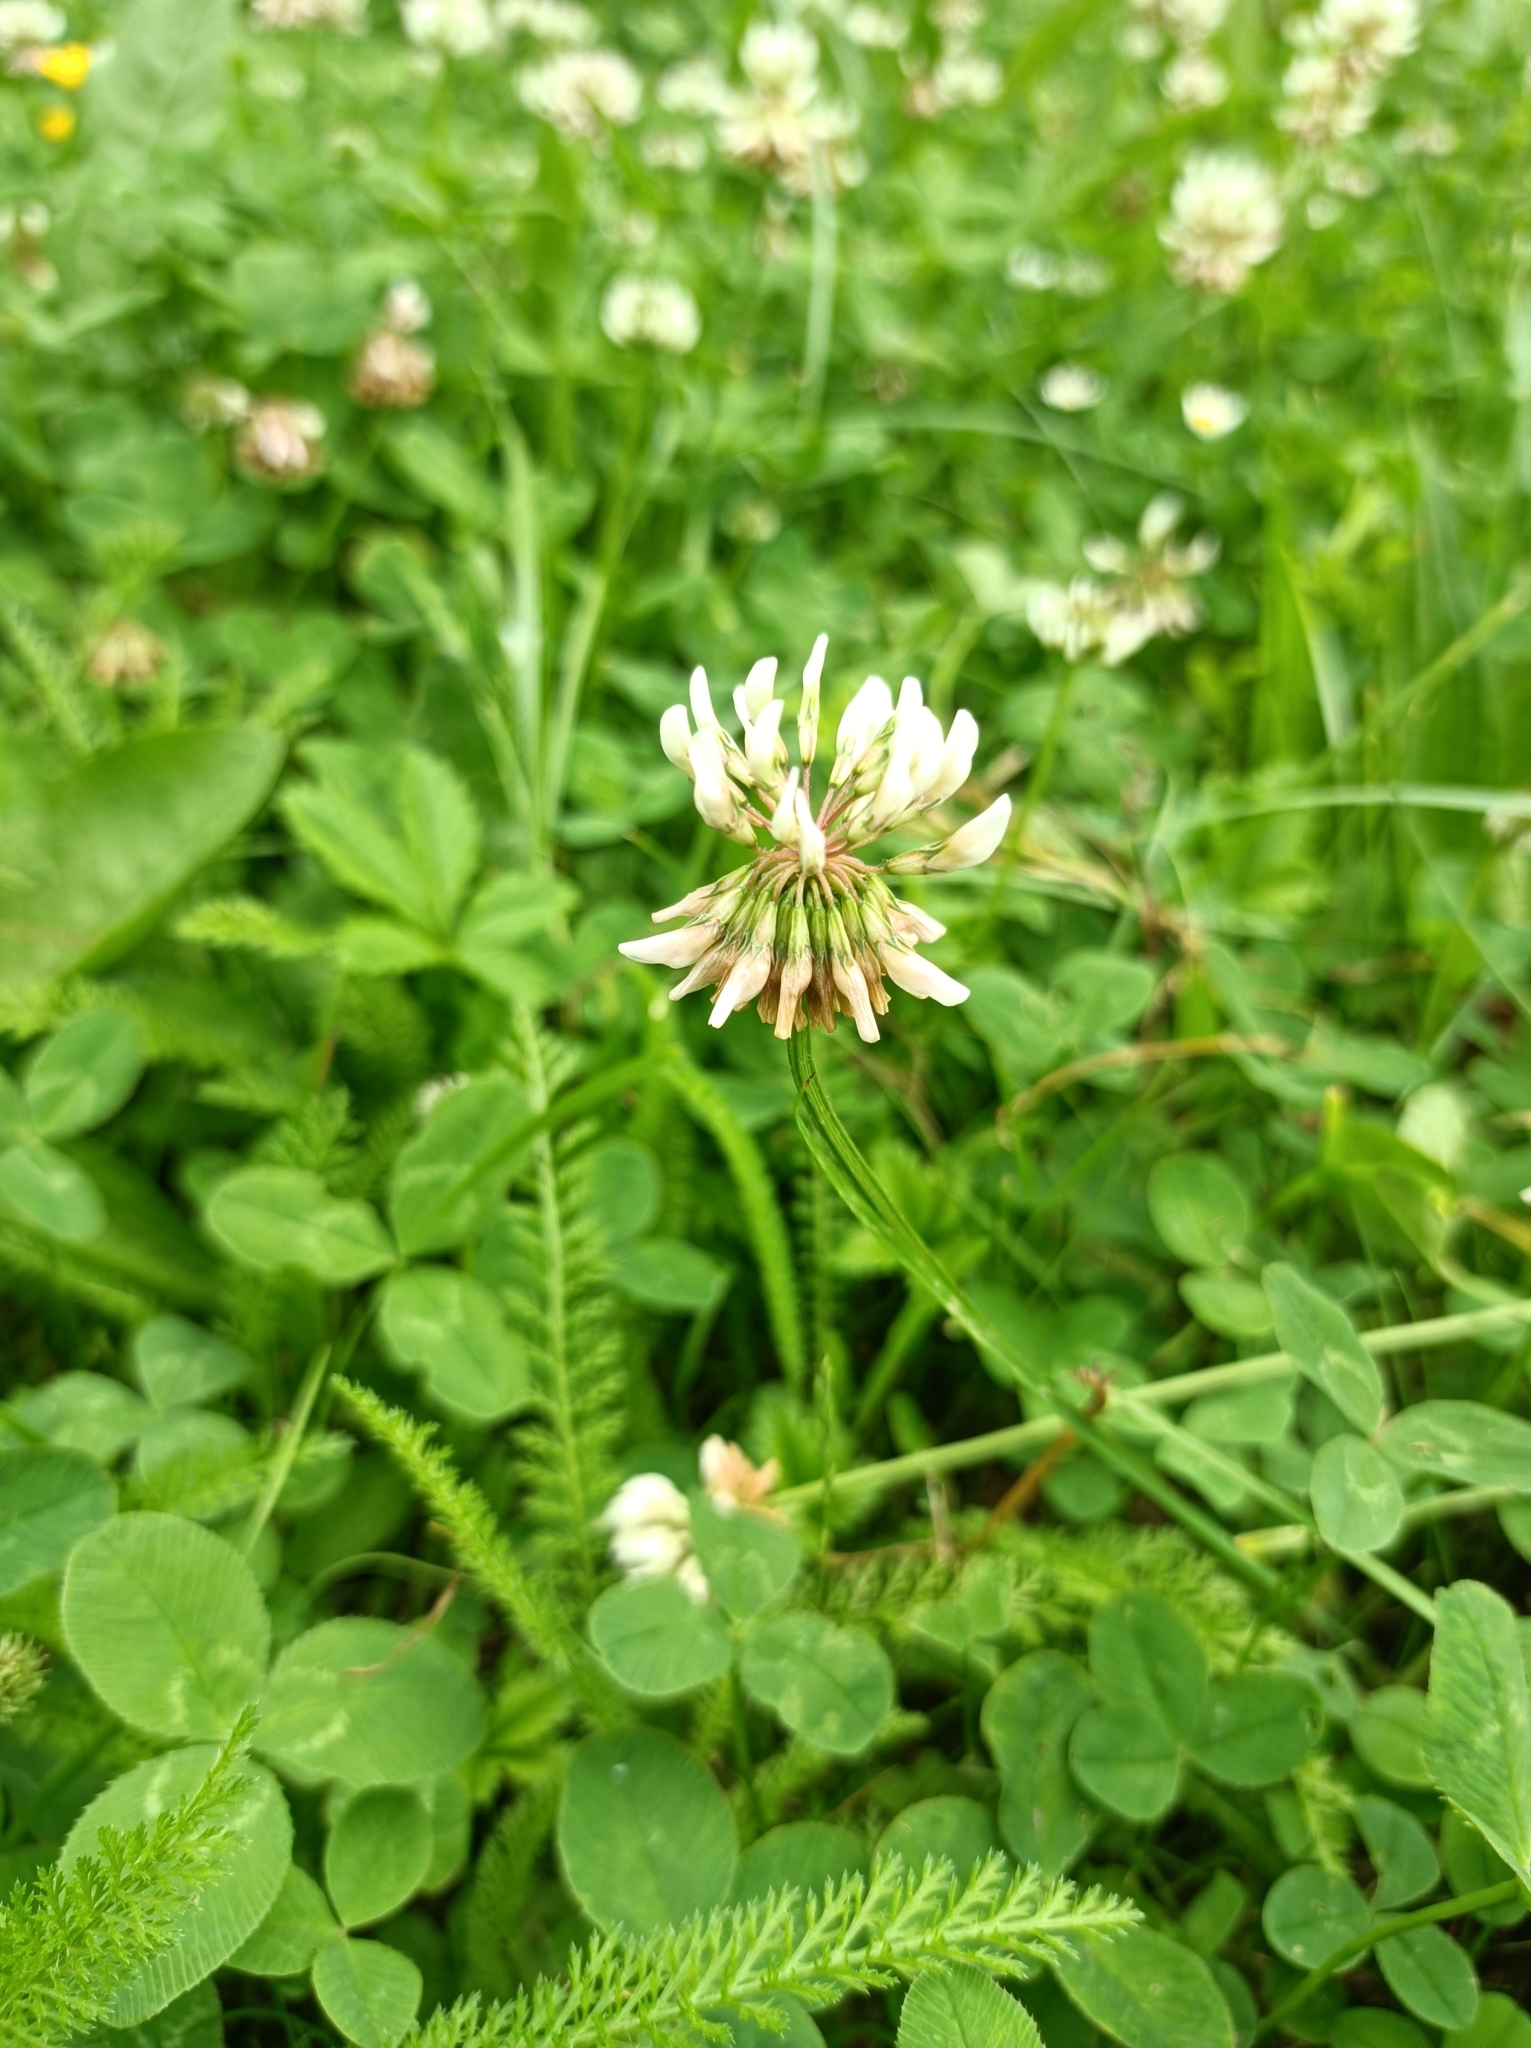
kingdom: Plantae
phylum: Tracheophyta
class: Magnoliopsida
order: Fabales
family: Fabaceae
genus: Trifolium
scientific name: Trifolium repens
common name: White clover
